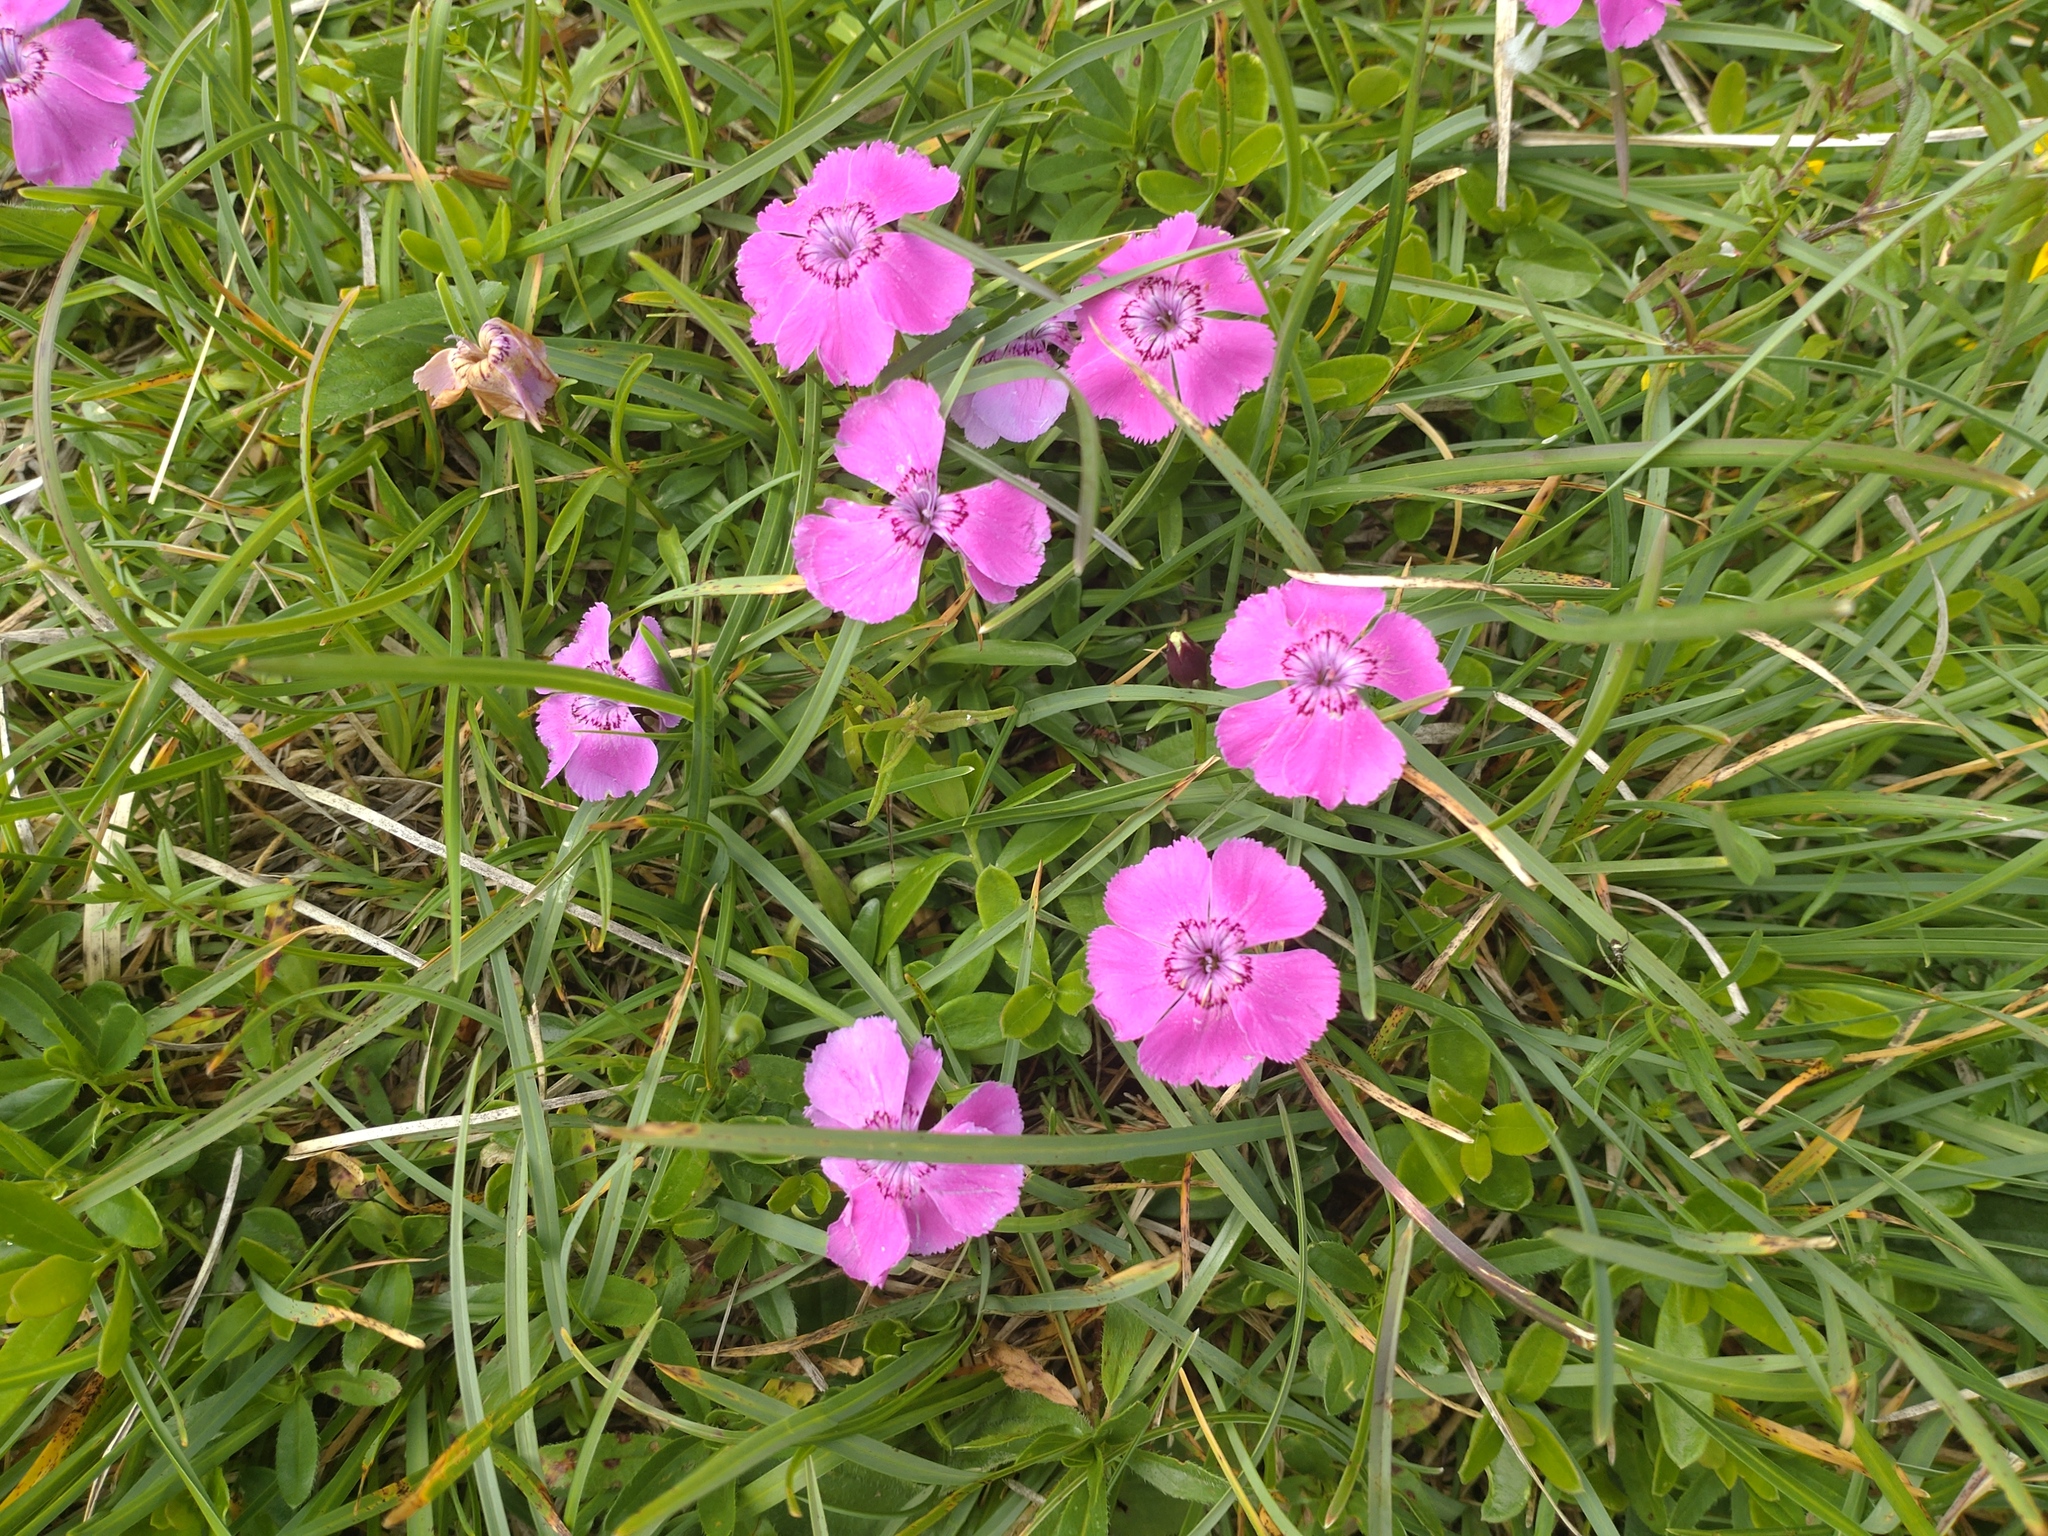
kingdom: Plantae
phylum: Tracheophyta
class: Magnoliopsida
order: Caryophyllales
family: Caryophyllaceae
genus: Dianthus
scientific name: Dianthus alpinus
